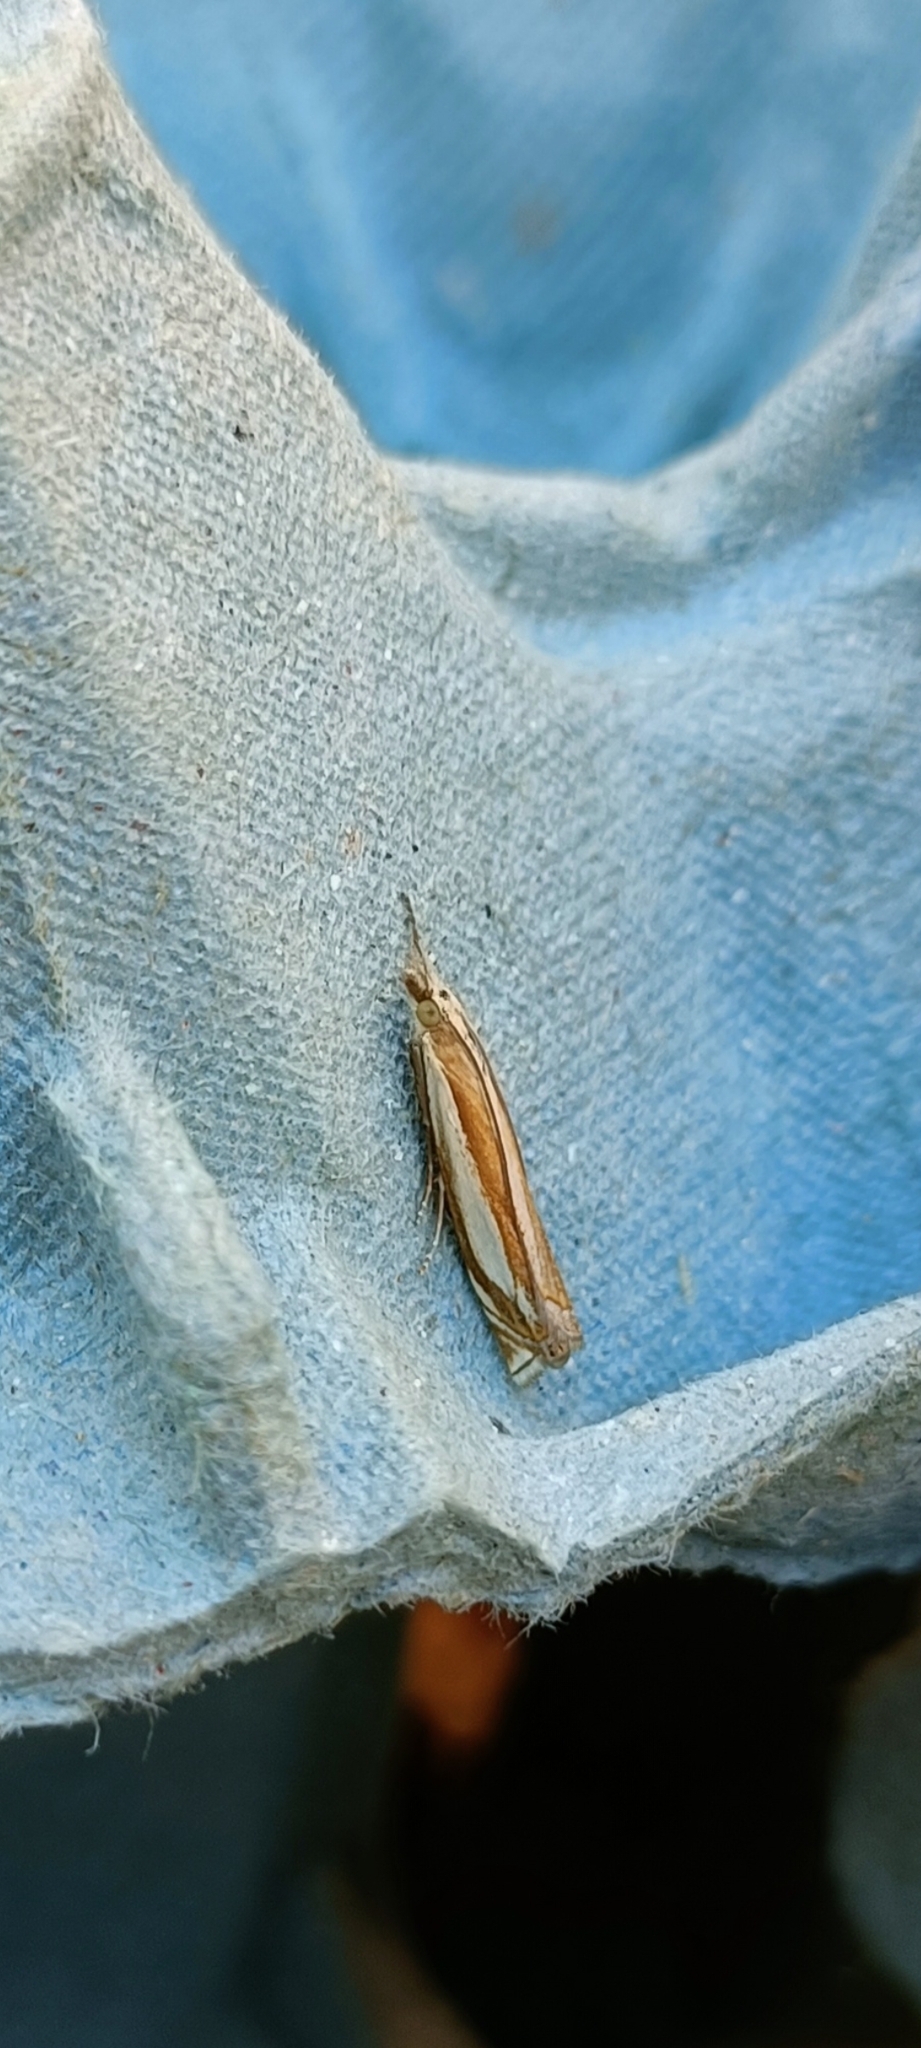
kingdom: Animalia
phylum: Arthropoda
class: Insecta
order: Lepidoptera
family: Crambidae
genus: Crambus
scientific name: Crambus pascuella
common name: Inlaid grass-veneer
